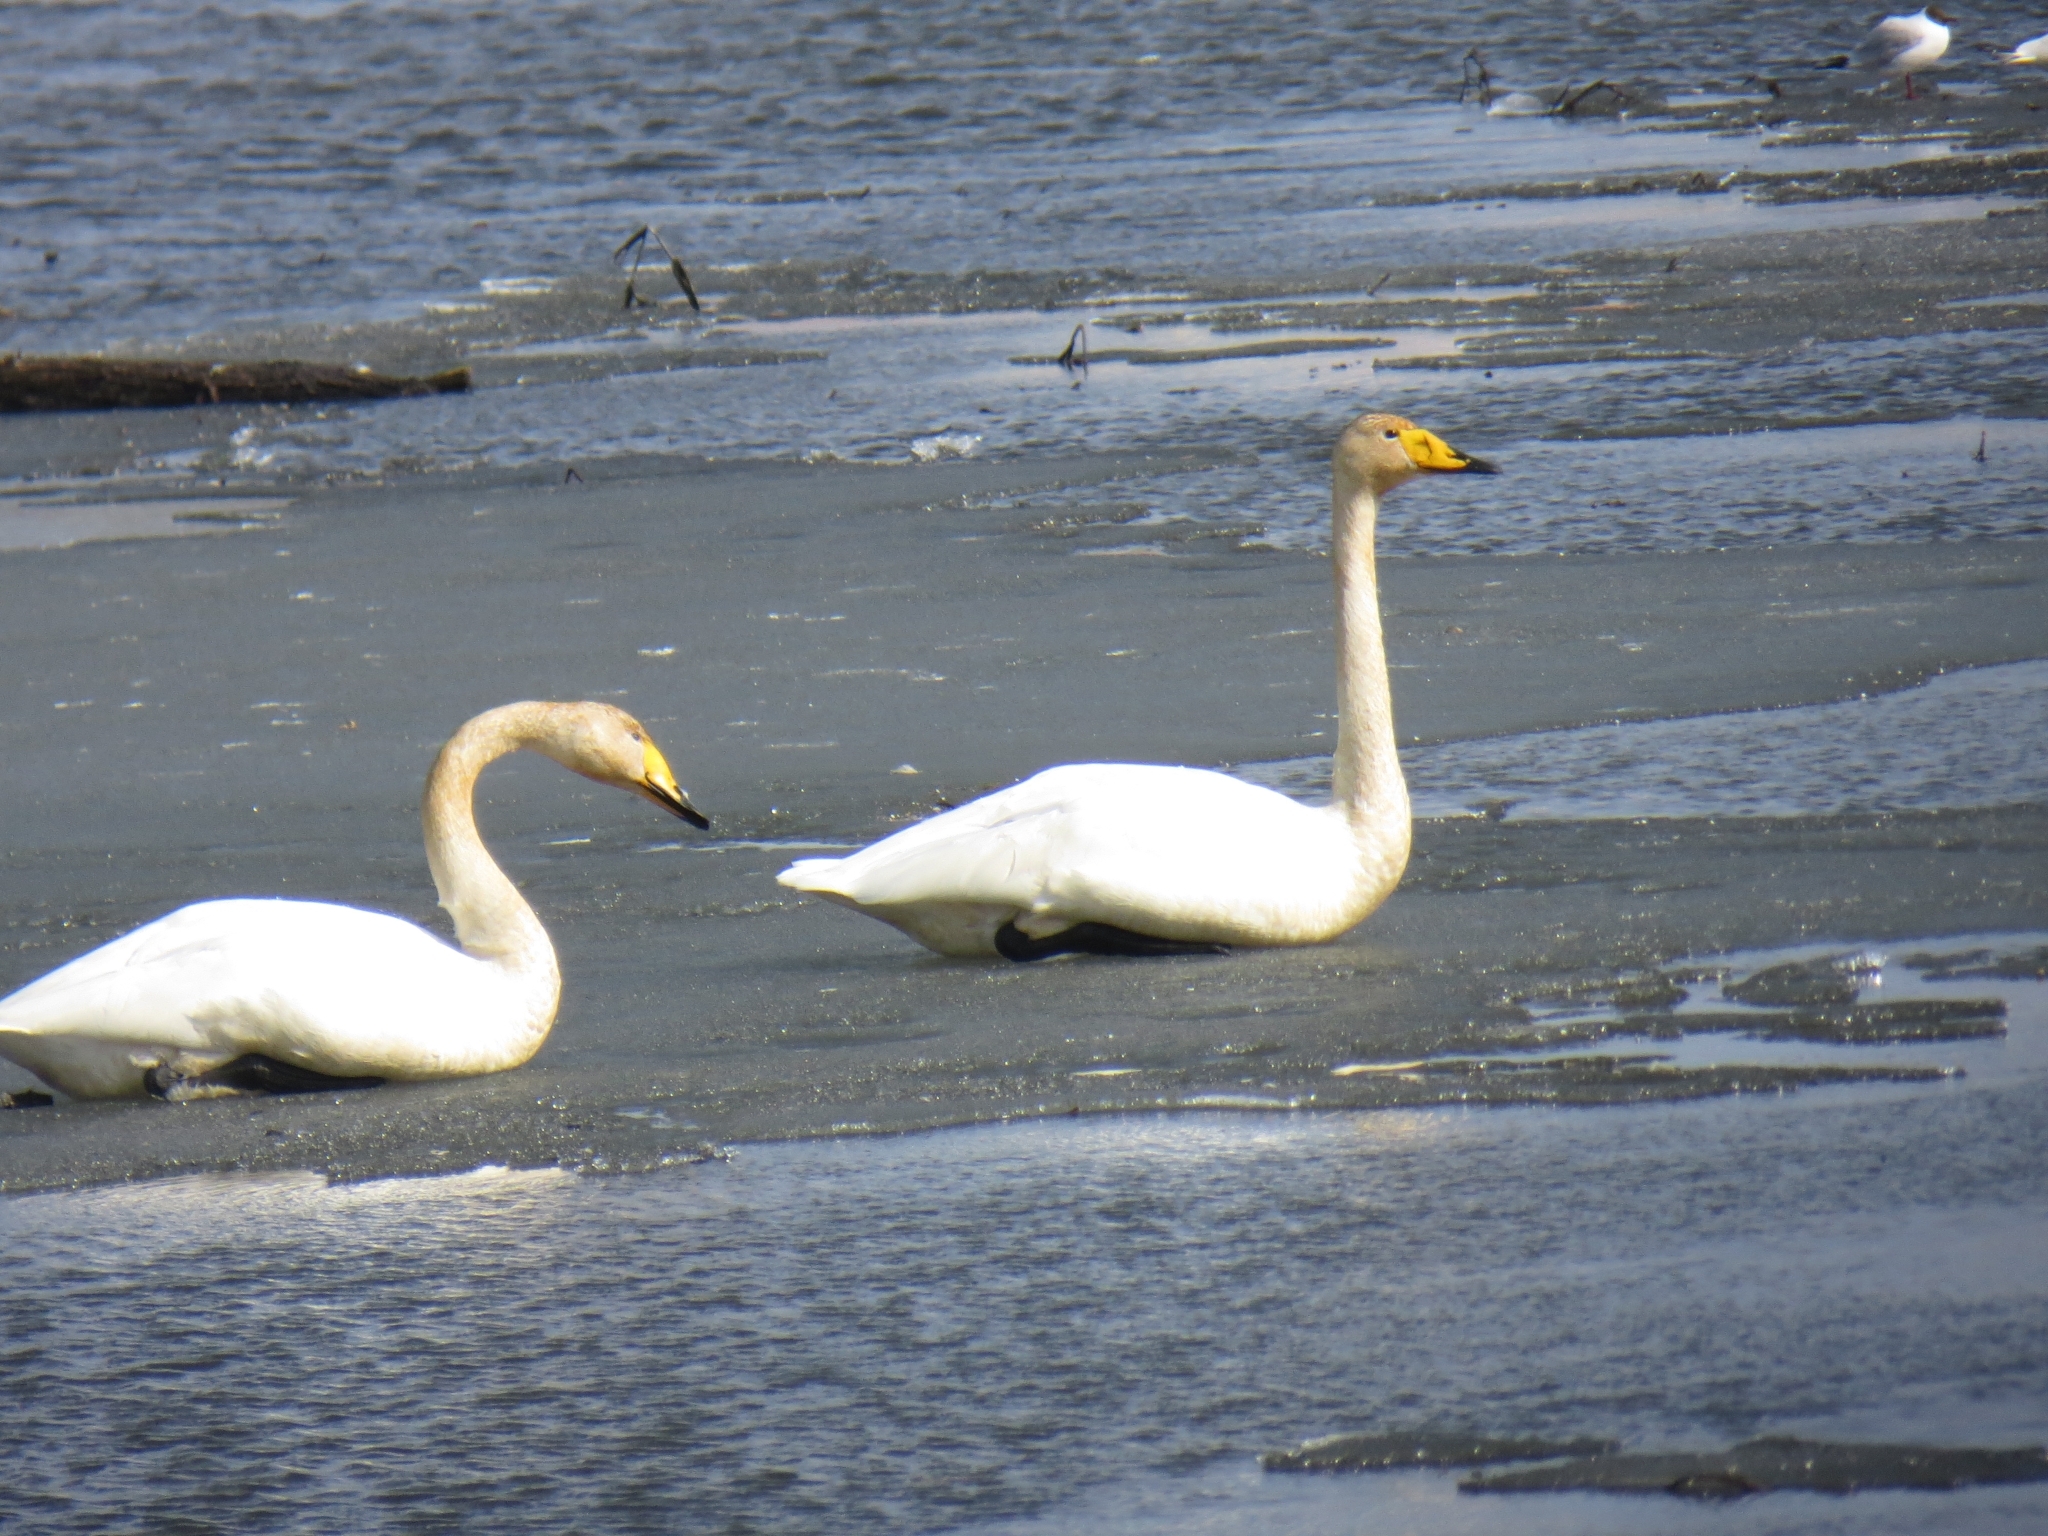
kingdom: Animalia
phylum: Chordata
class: Aves
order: Anseriformes
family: Anatidae
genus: Cygnus
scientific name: Cygnus cygnus
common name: Whooper swan
